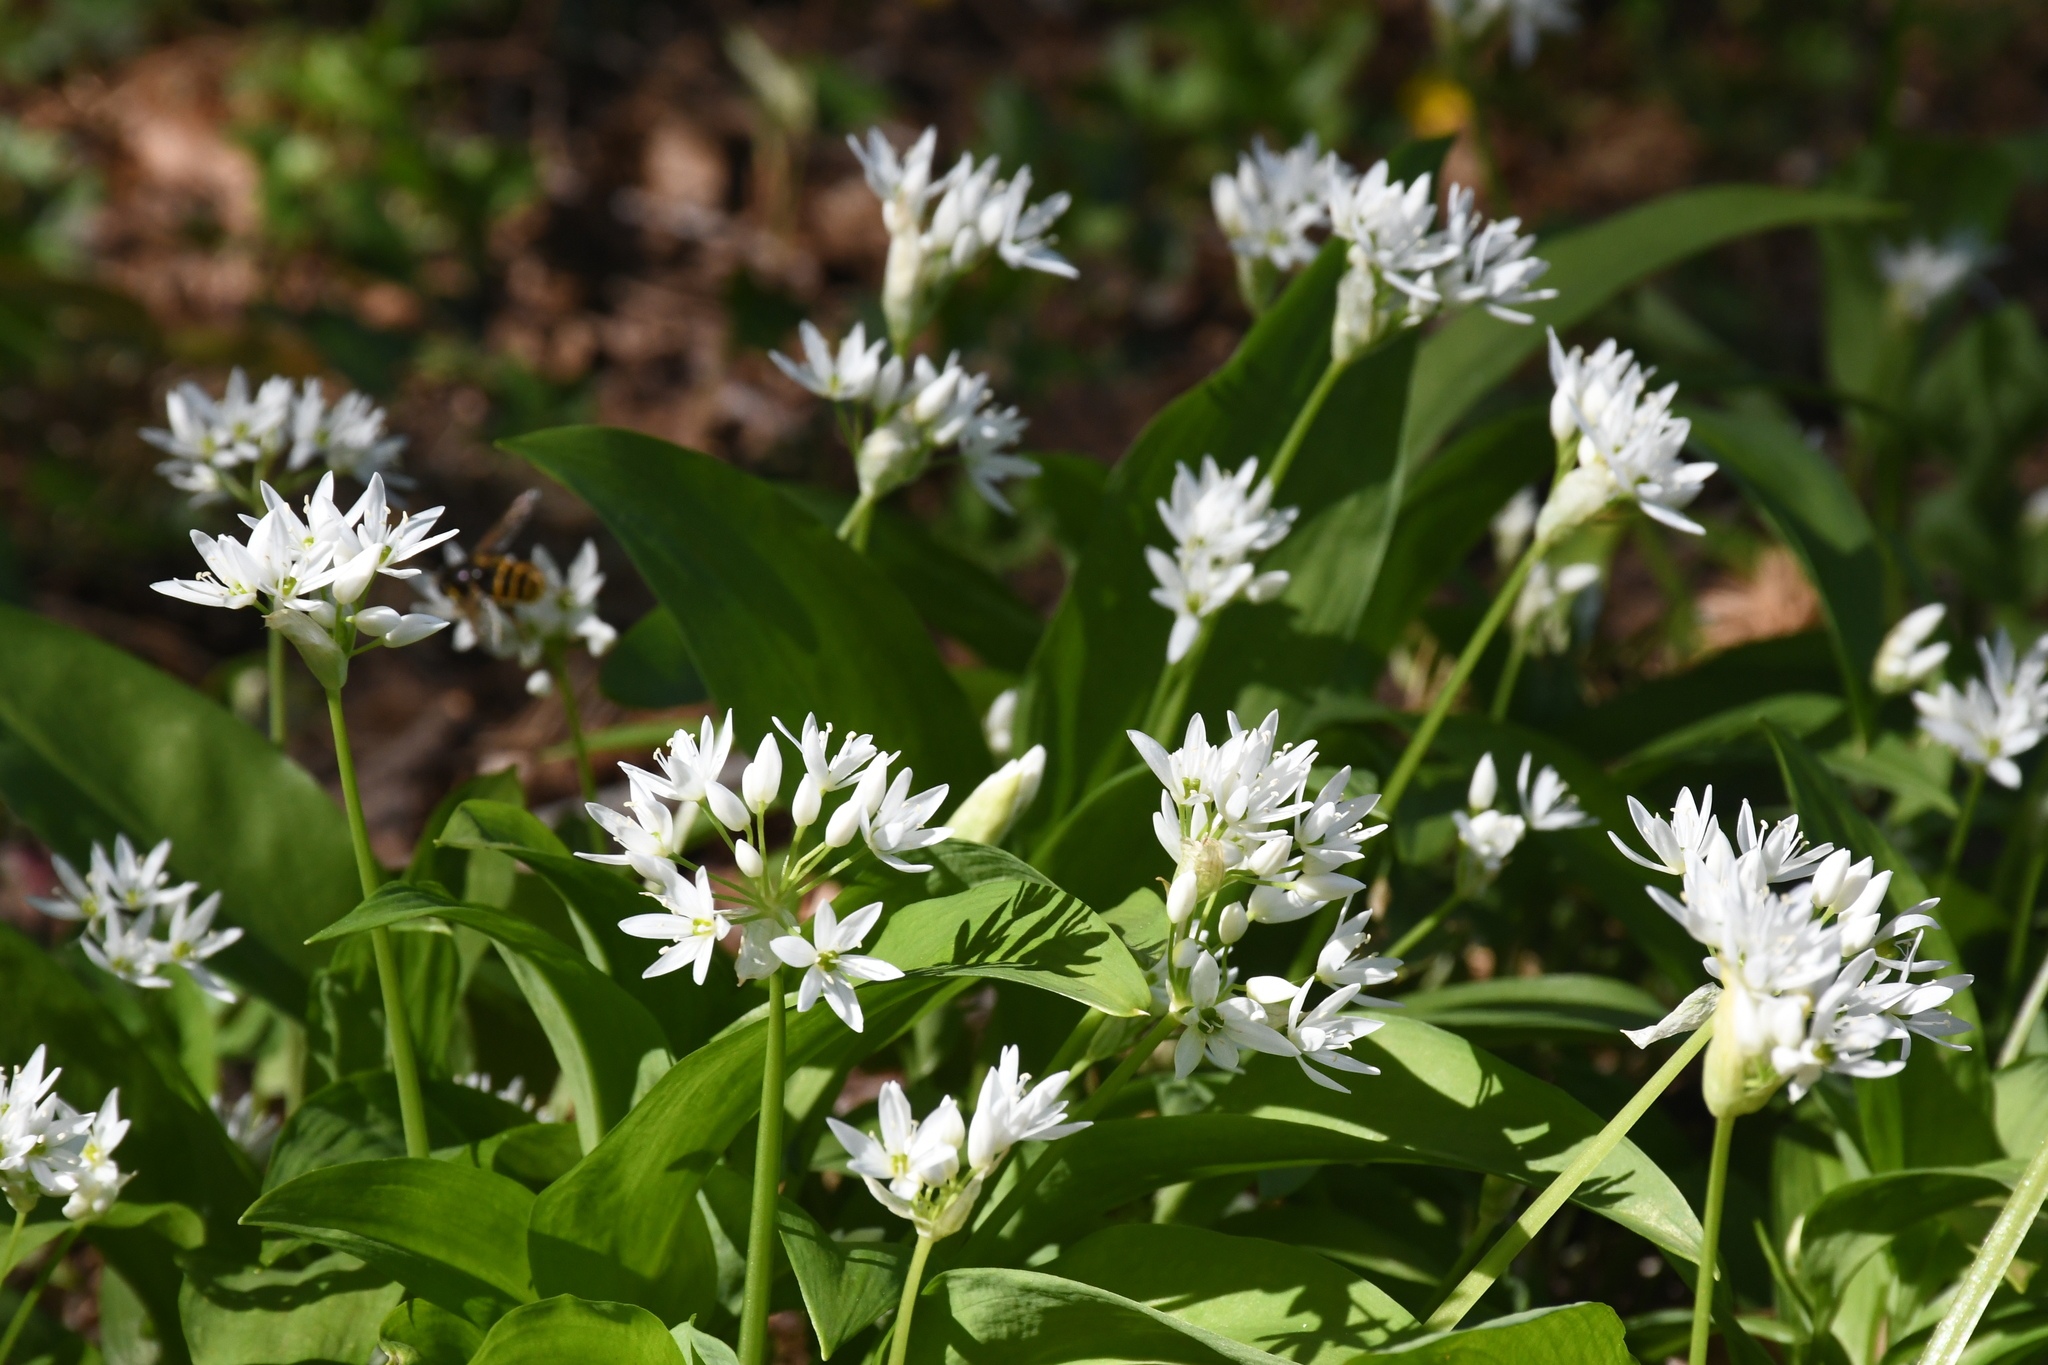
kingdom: Plantae
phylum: Tracheophyta
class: Liliopsida
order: Asparagales
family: Amaryllidaceae
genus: Allium
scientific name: Allium ursinum
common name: Ramsons
